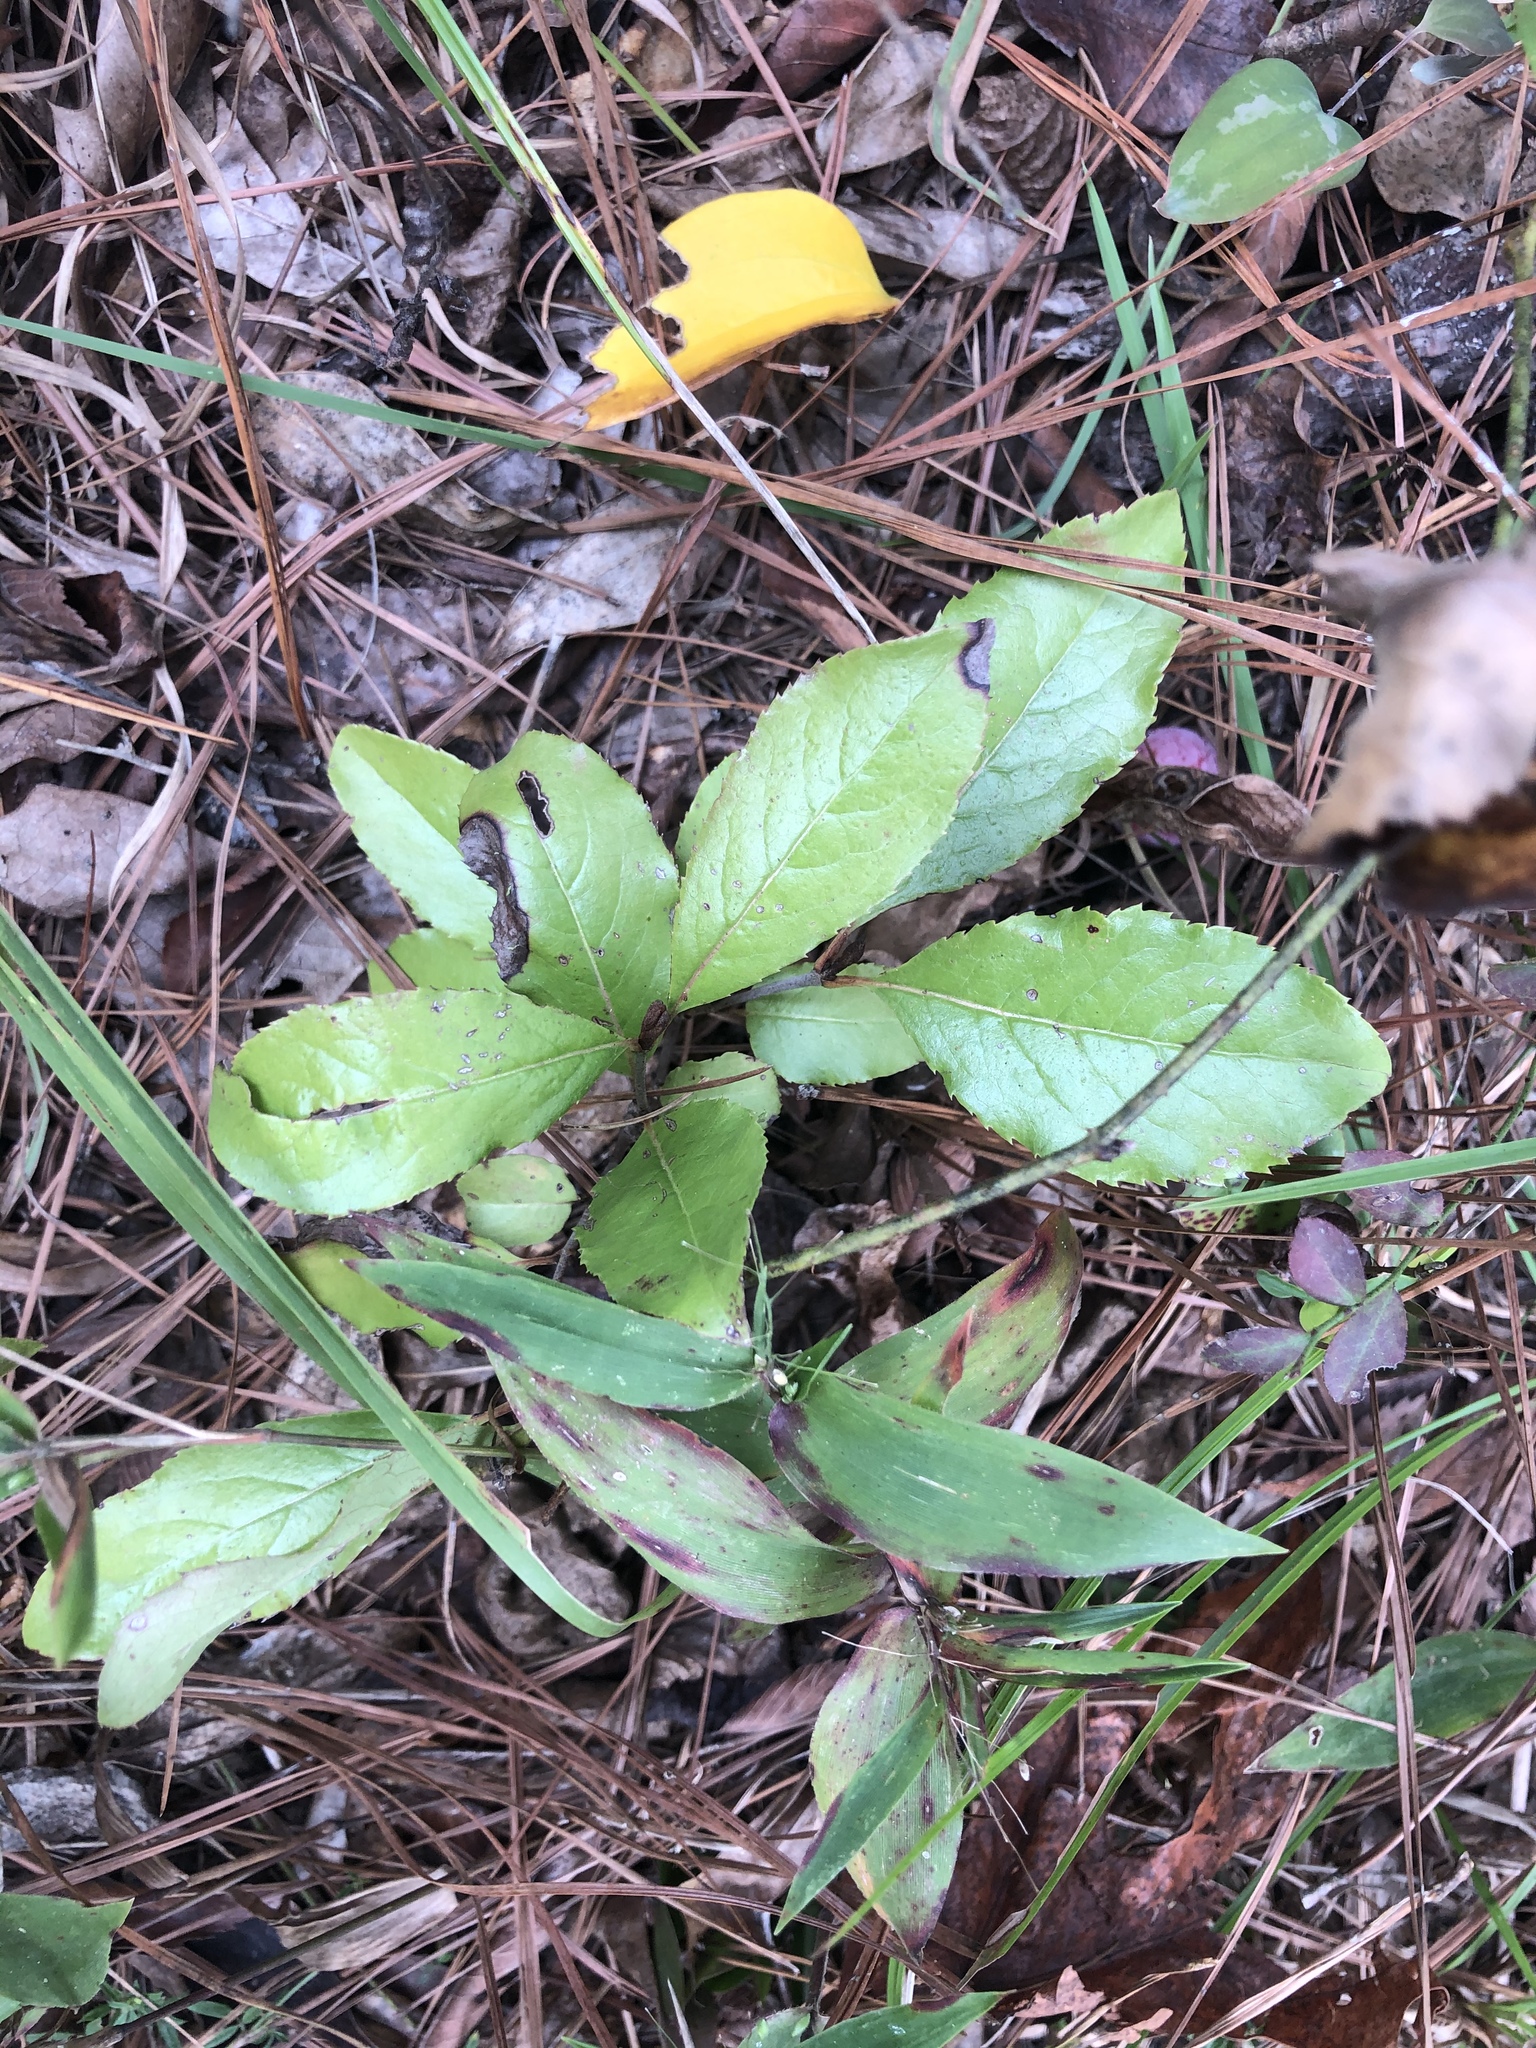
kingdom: Plantae
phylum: Tracheophyta
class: Magnoliopsida
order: Dipsacales
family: Viburnaceae
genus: Viburnum
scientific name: Viburnum rufidulum
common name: Blue haw
